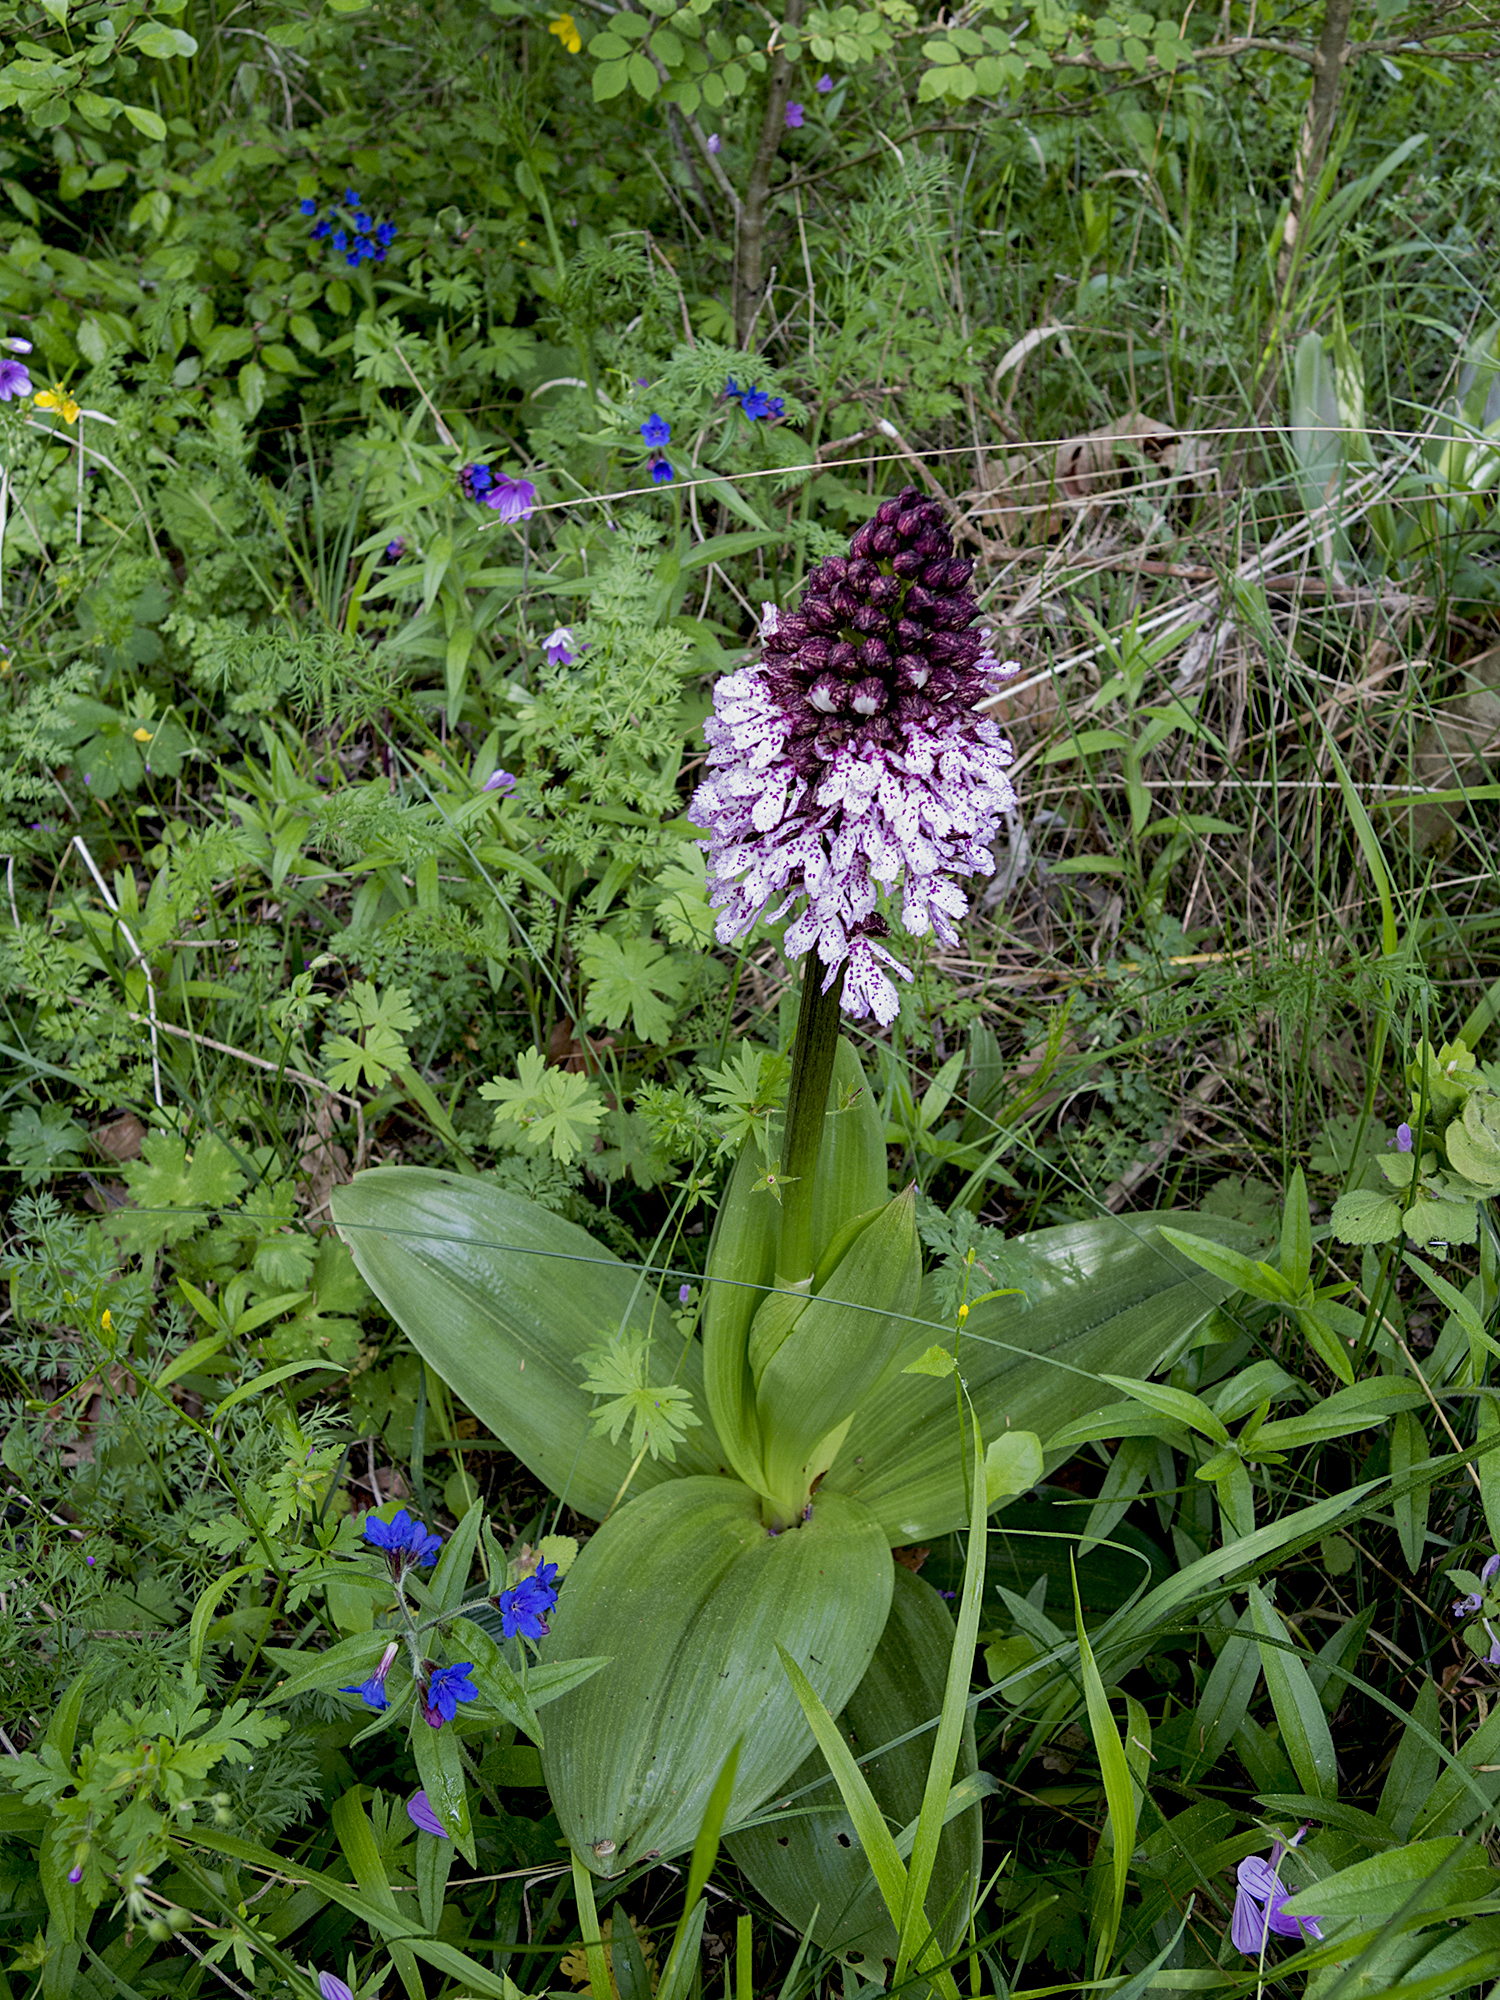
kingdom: Plantae
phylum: Tracheophyta
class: Liliopsida
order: Asparagales
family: Orchidaceae
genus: Orchis
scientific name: Orchis purpurea
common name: Lady orchid
